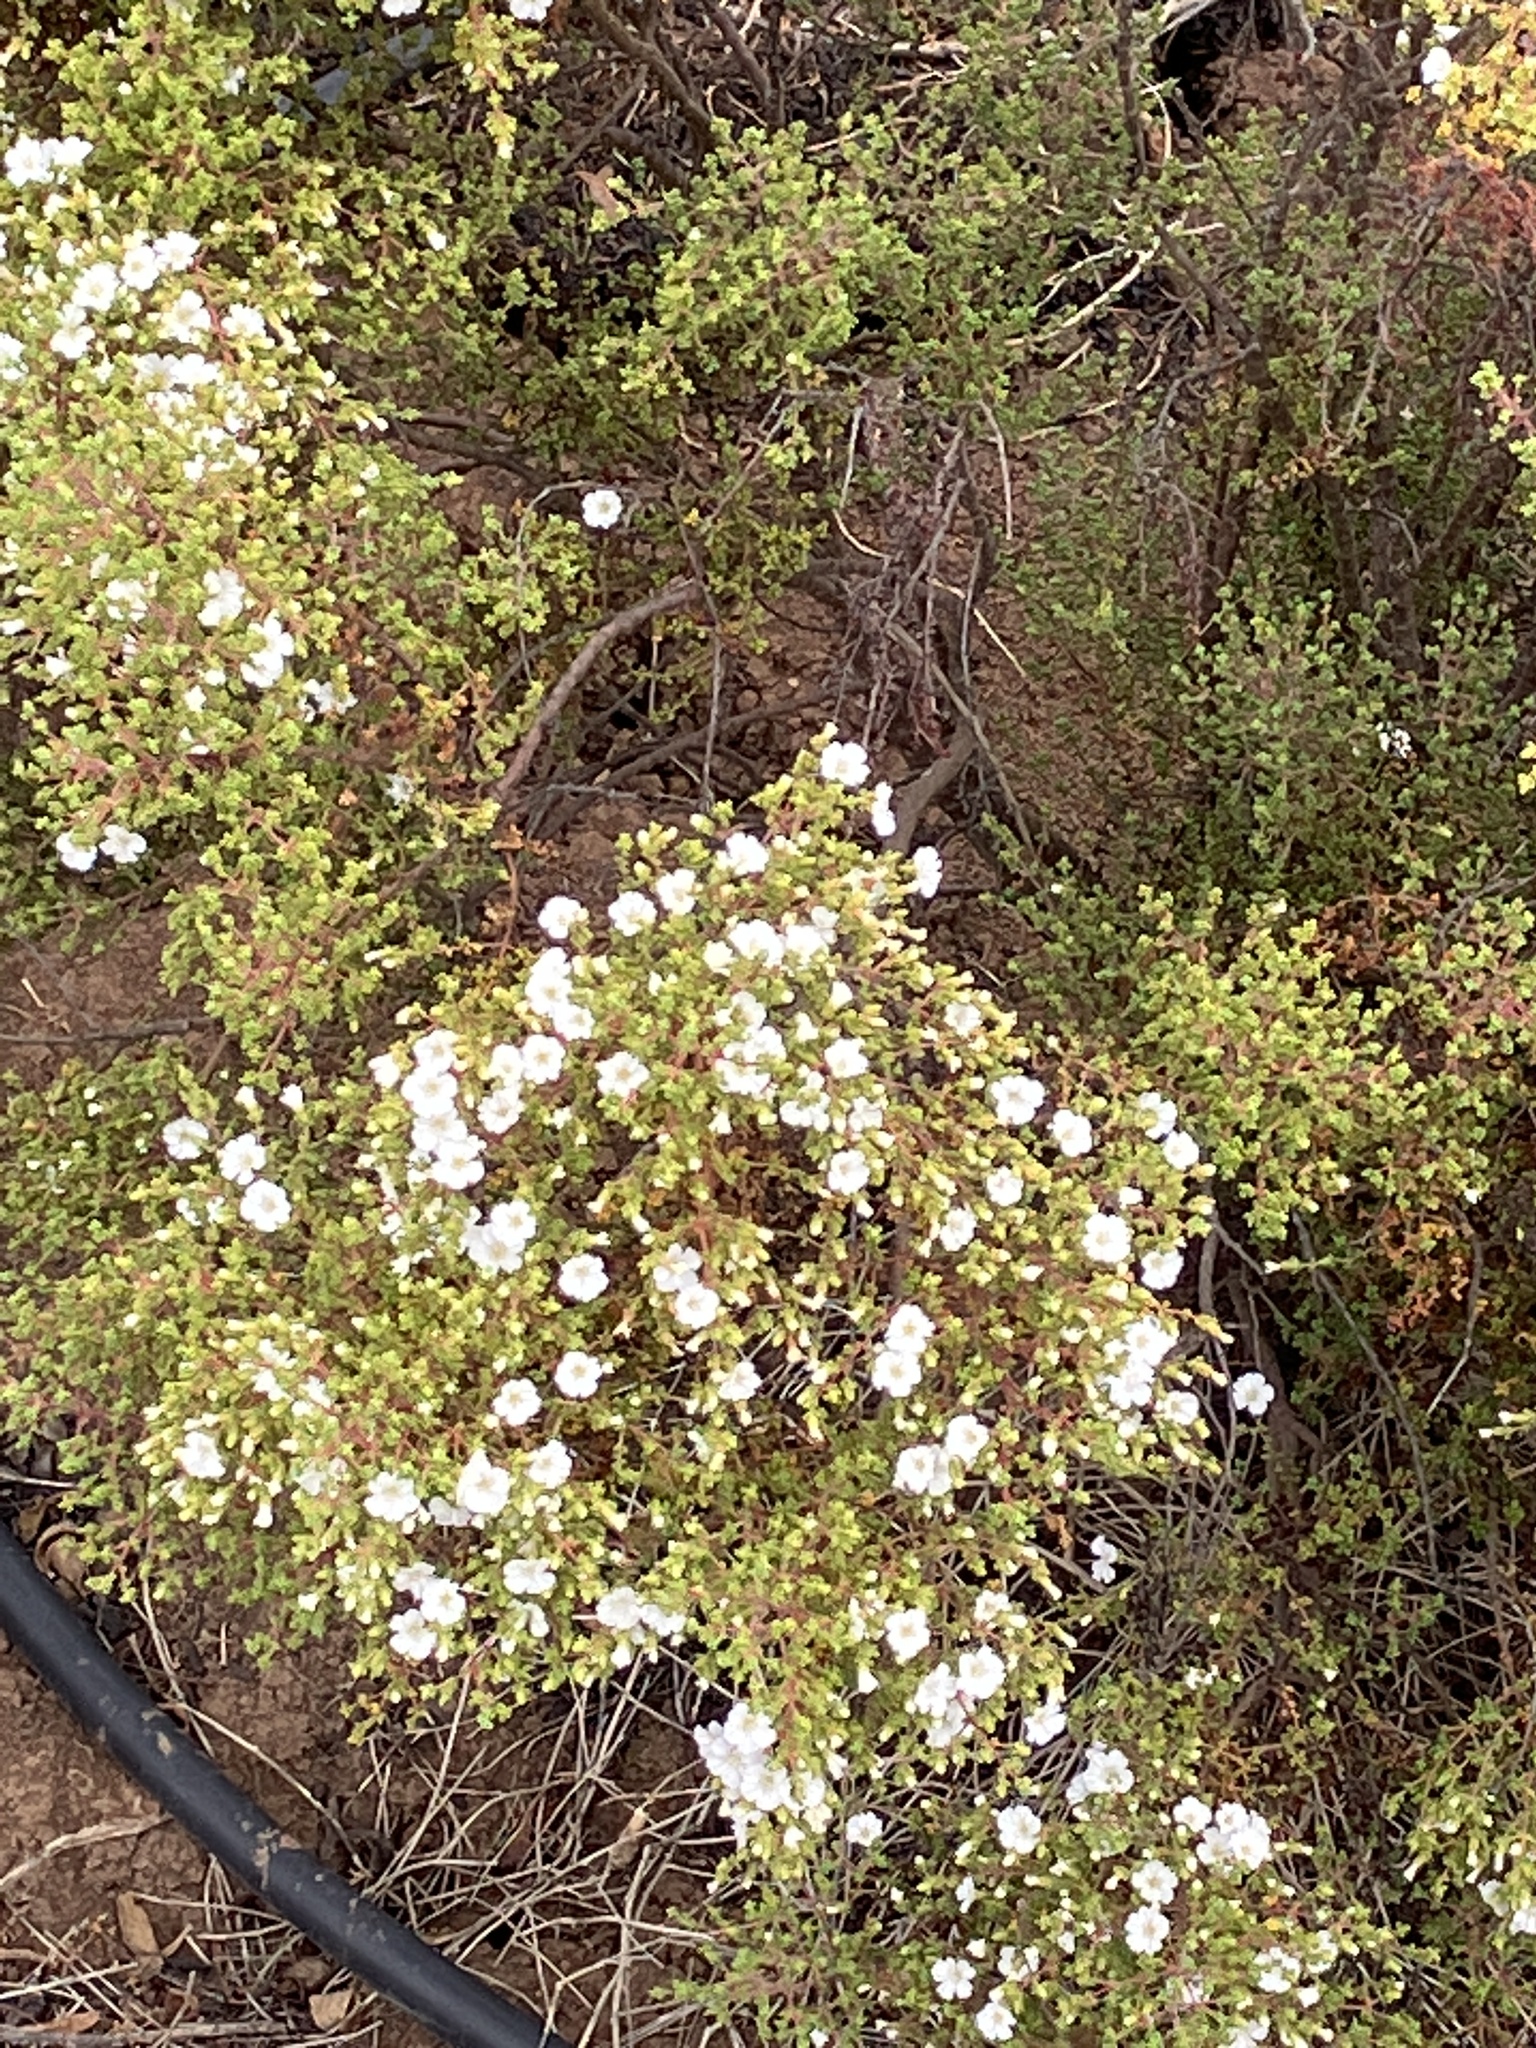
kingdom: Plantae
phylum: Tracheophyta
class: Magnoliopsida
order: Caryophyllales
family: Frankeniaceae
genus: Frankenia
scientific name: Frankenia portulacifolia
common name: St helena tea plant
